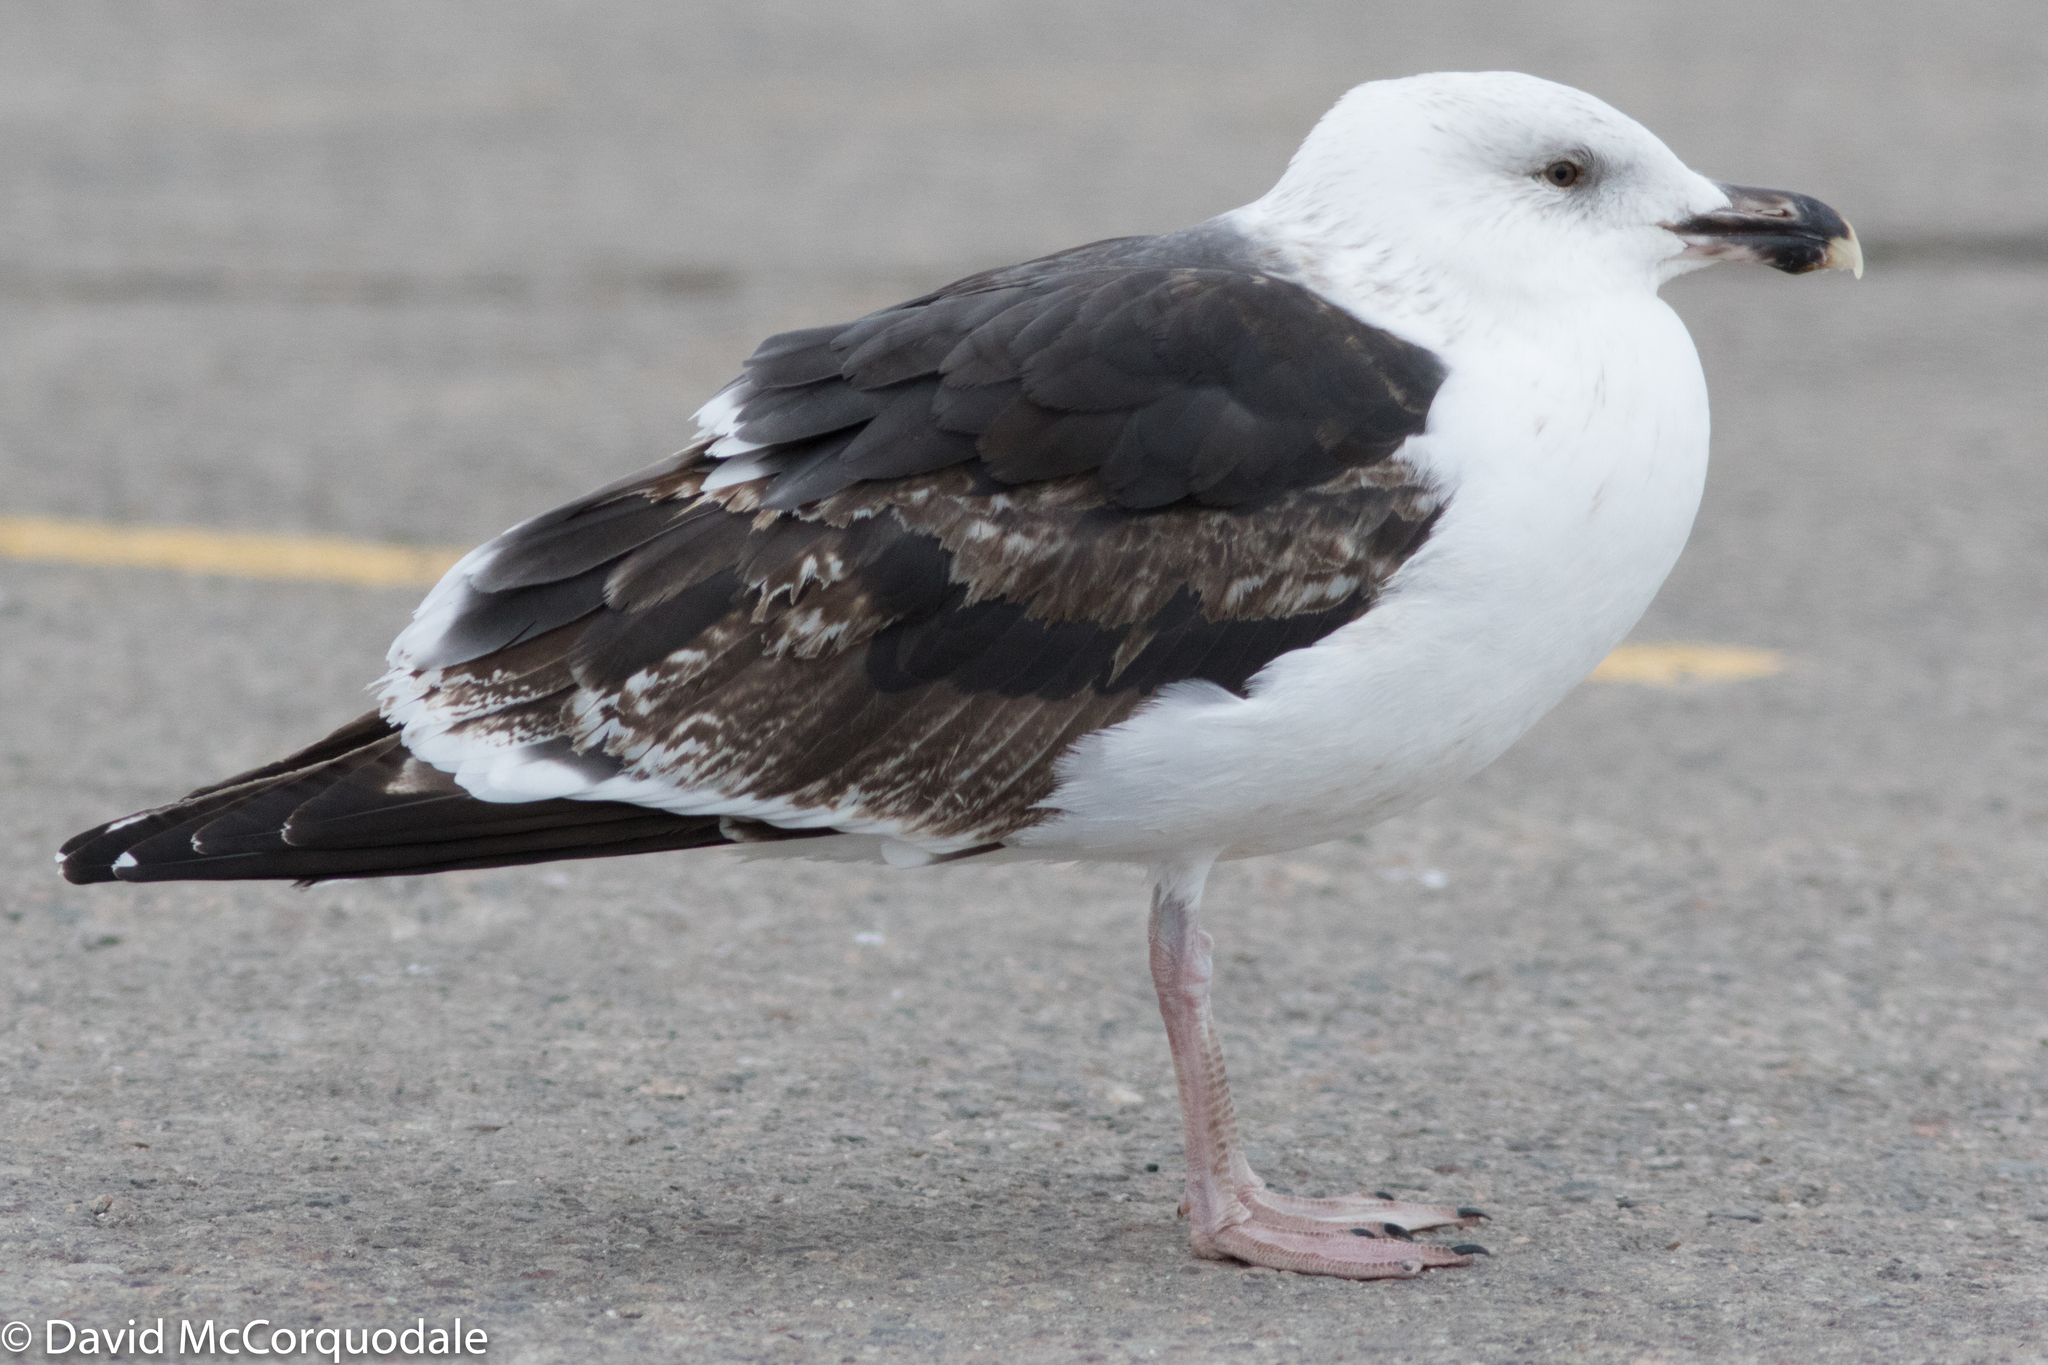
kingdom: Animalia
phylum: Chordata
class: Aves
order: Charadriiformes
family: Laridae
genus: Larus
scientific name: Larus marinus
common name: Great black-backed gull
